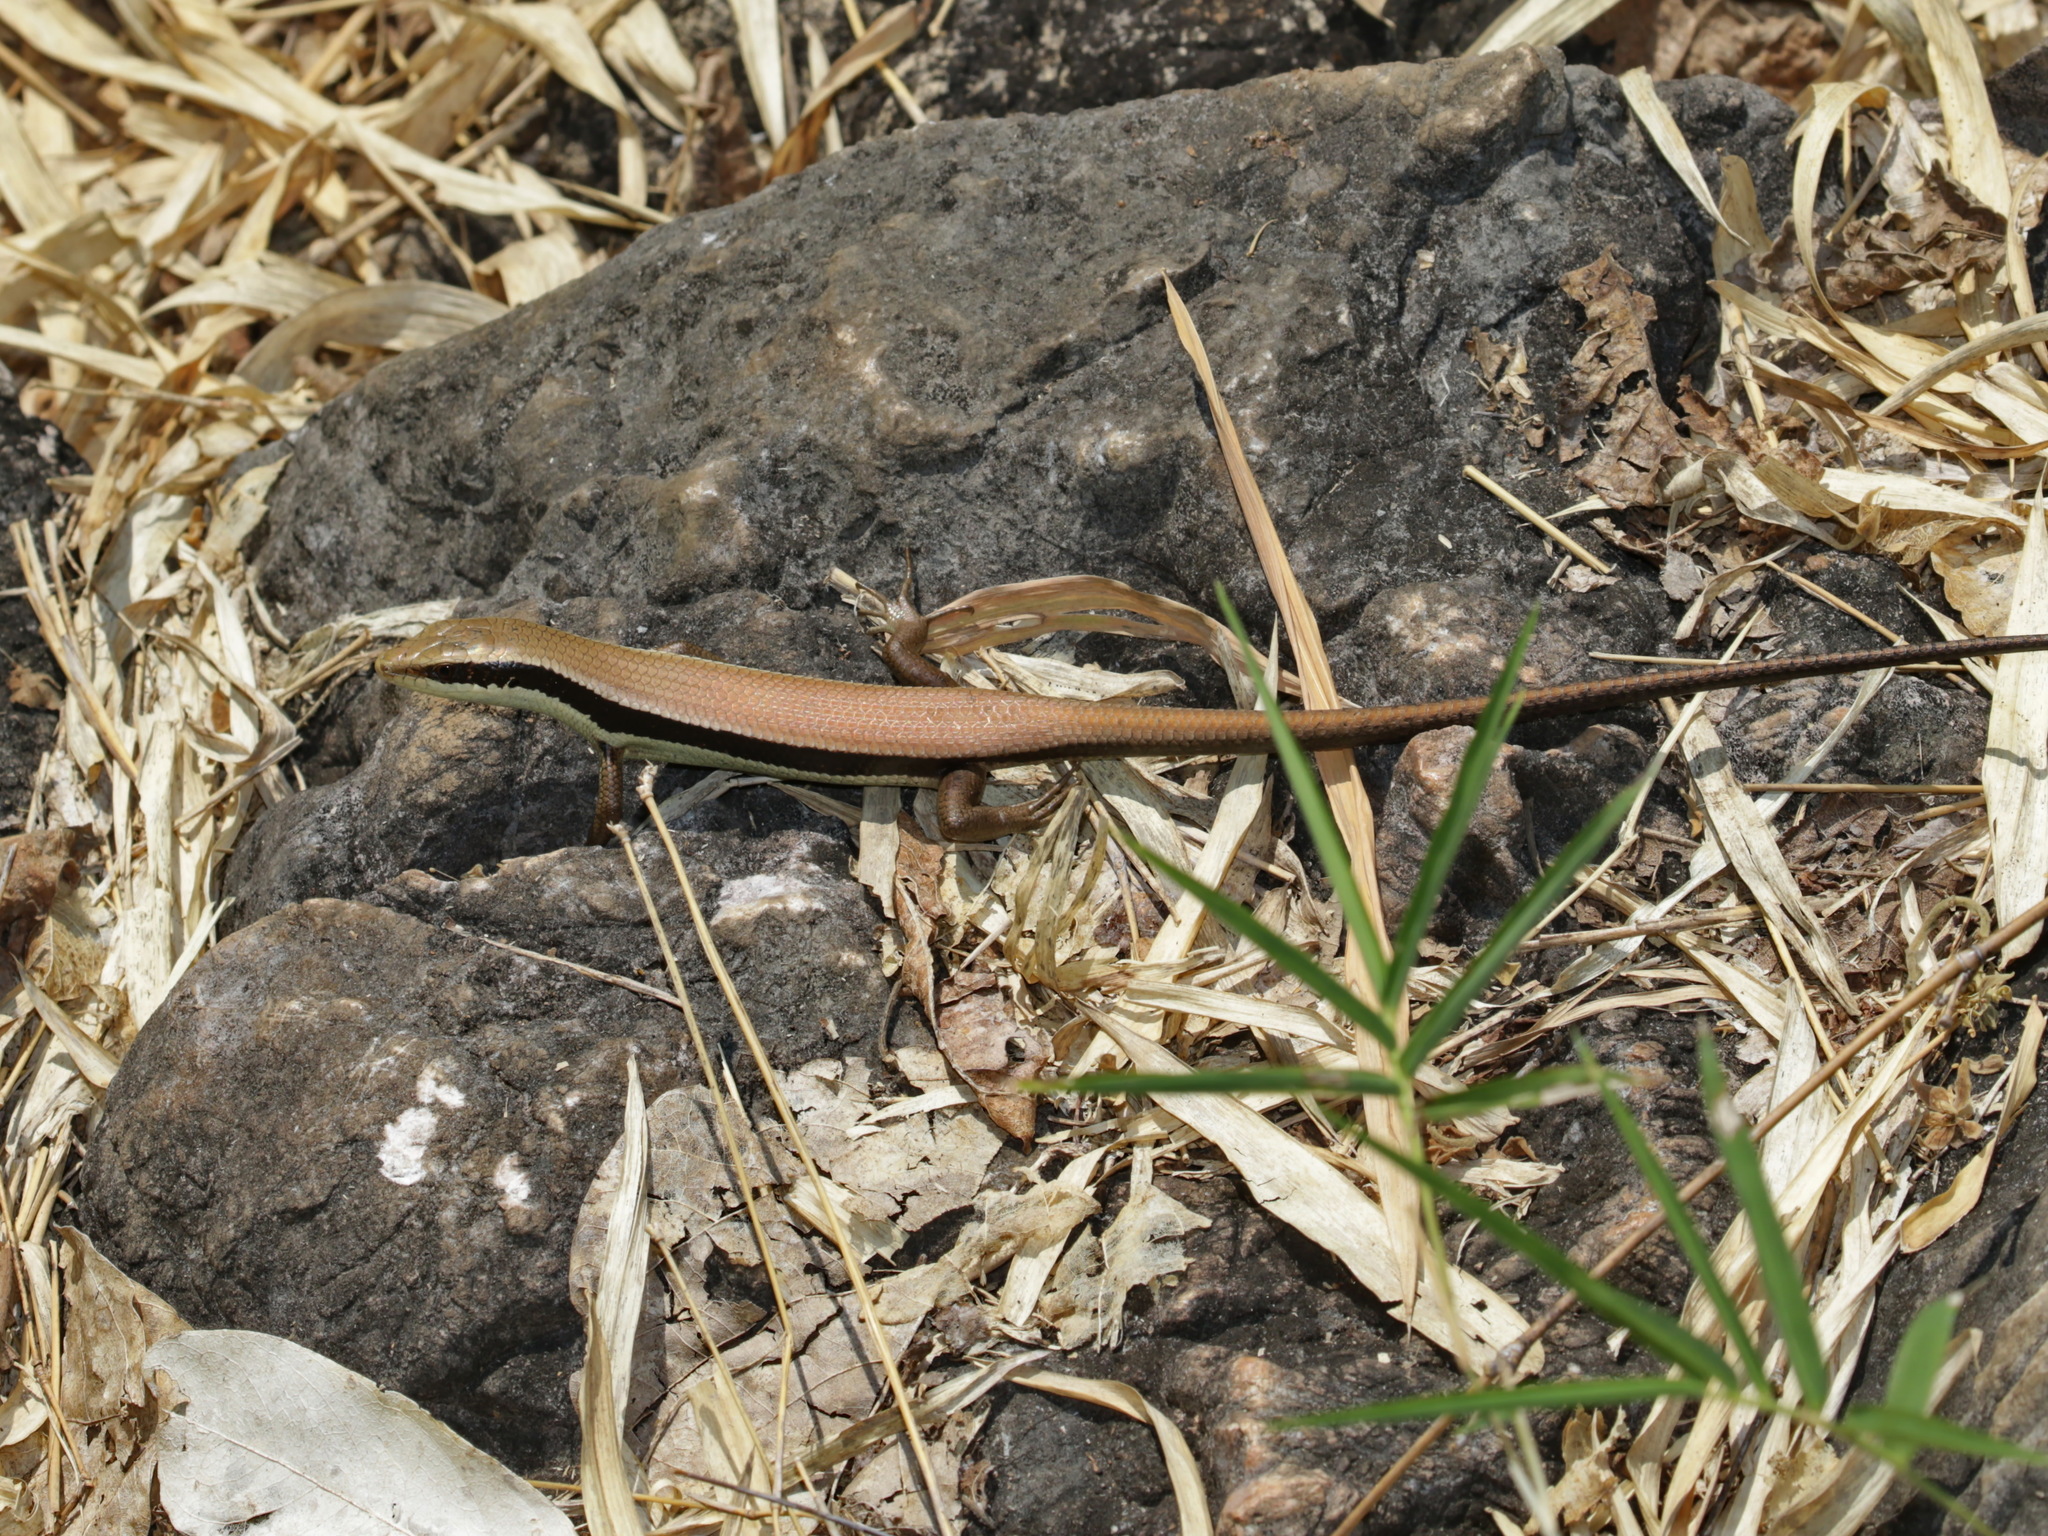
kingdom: Animalia
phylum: Chordata
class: Squamata
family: Scincidae
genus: Eutropis
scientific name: Eutropis longicaudata
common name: Long-tailed sun skink
